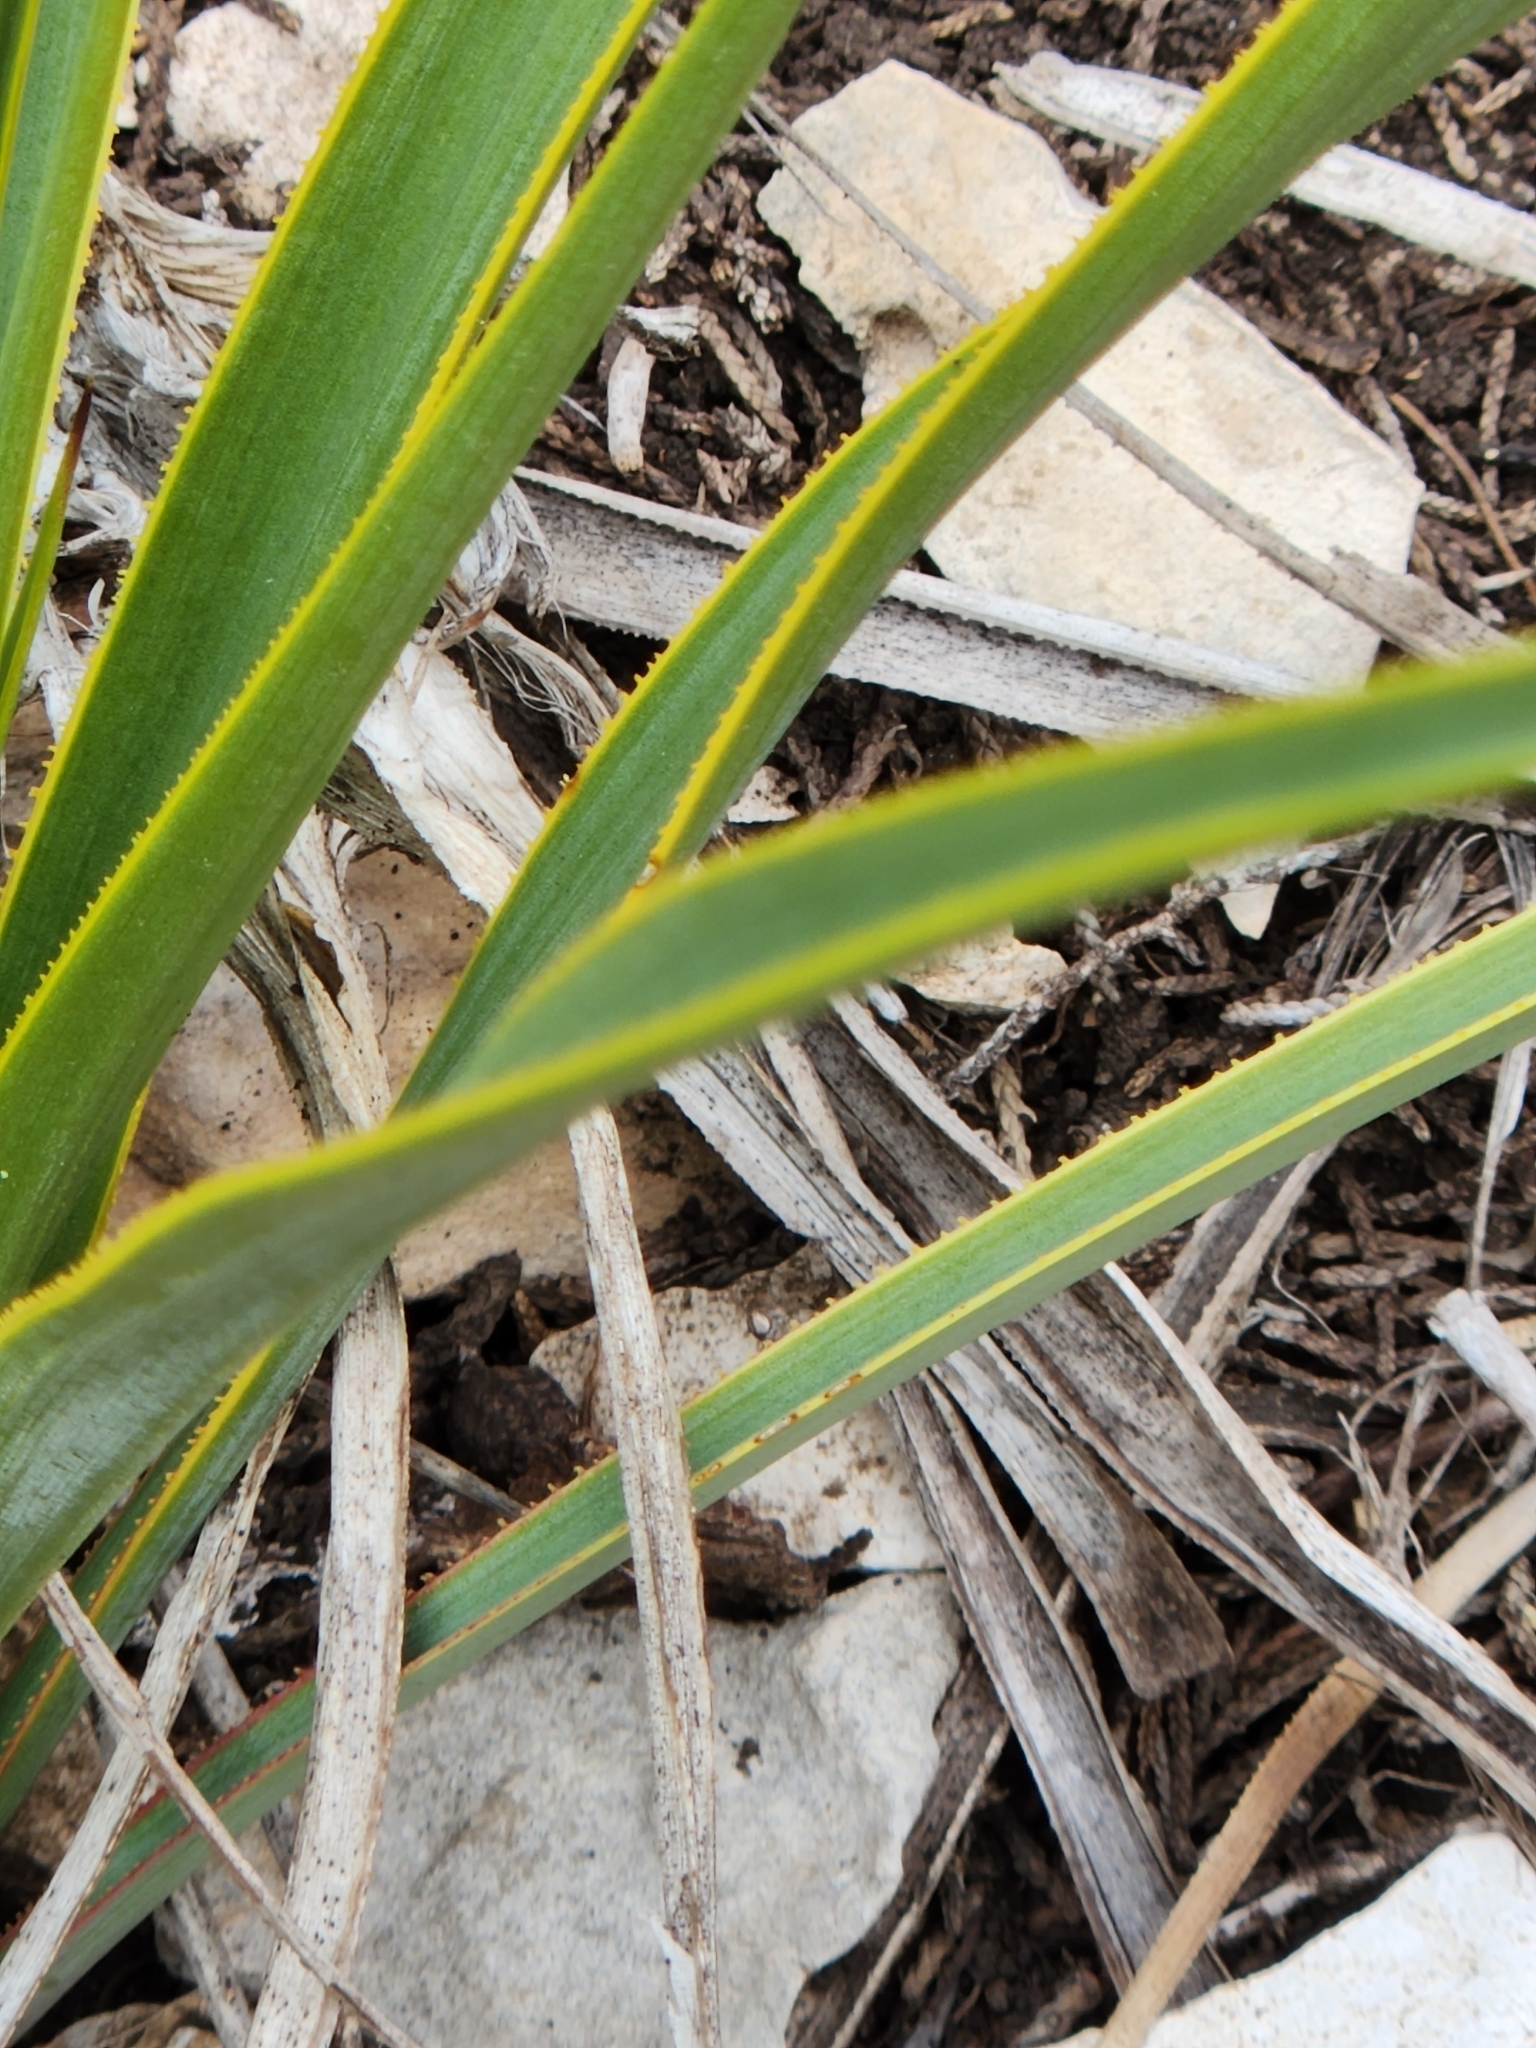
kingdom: Plantae
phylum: Tracheophyta
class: Liliopsida
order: Asparagales
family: Asparagaceae
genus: Yucca
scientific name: Yucca rupicola
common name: Twisted-leaf spanish-dagger
